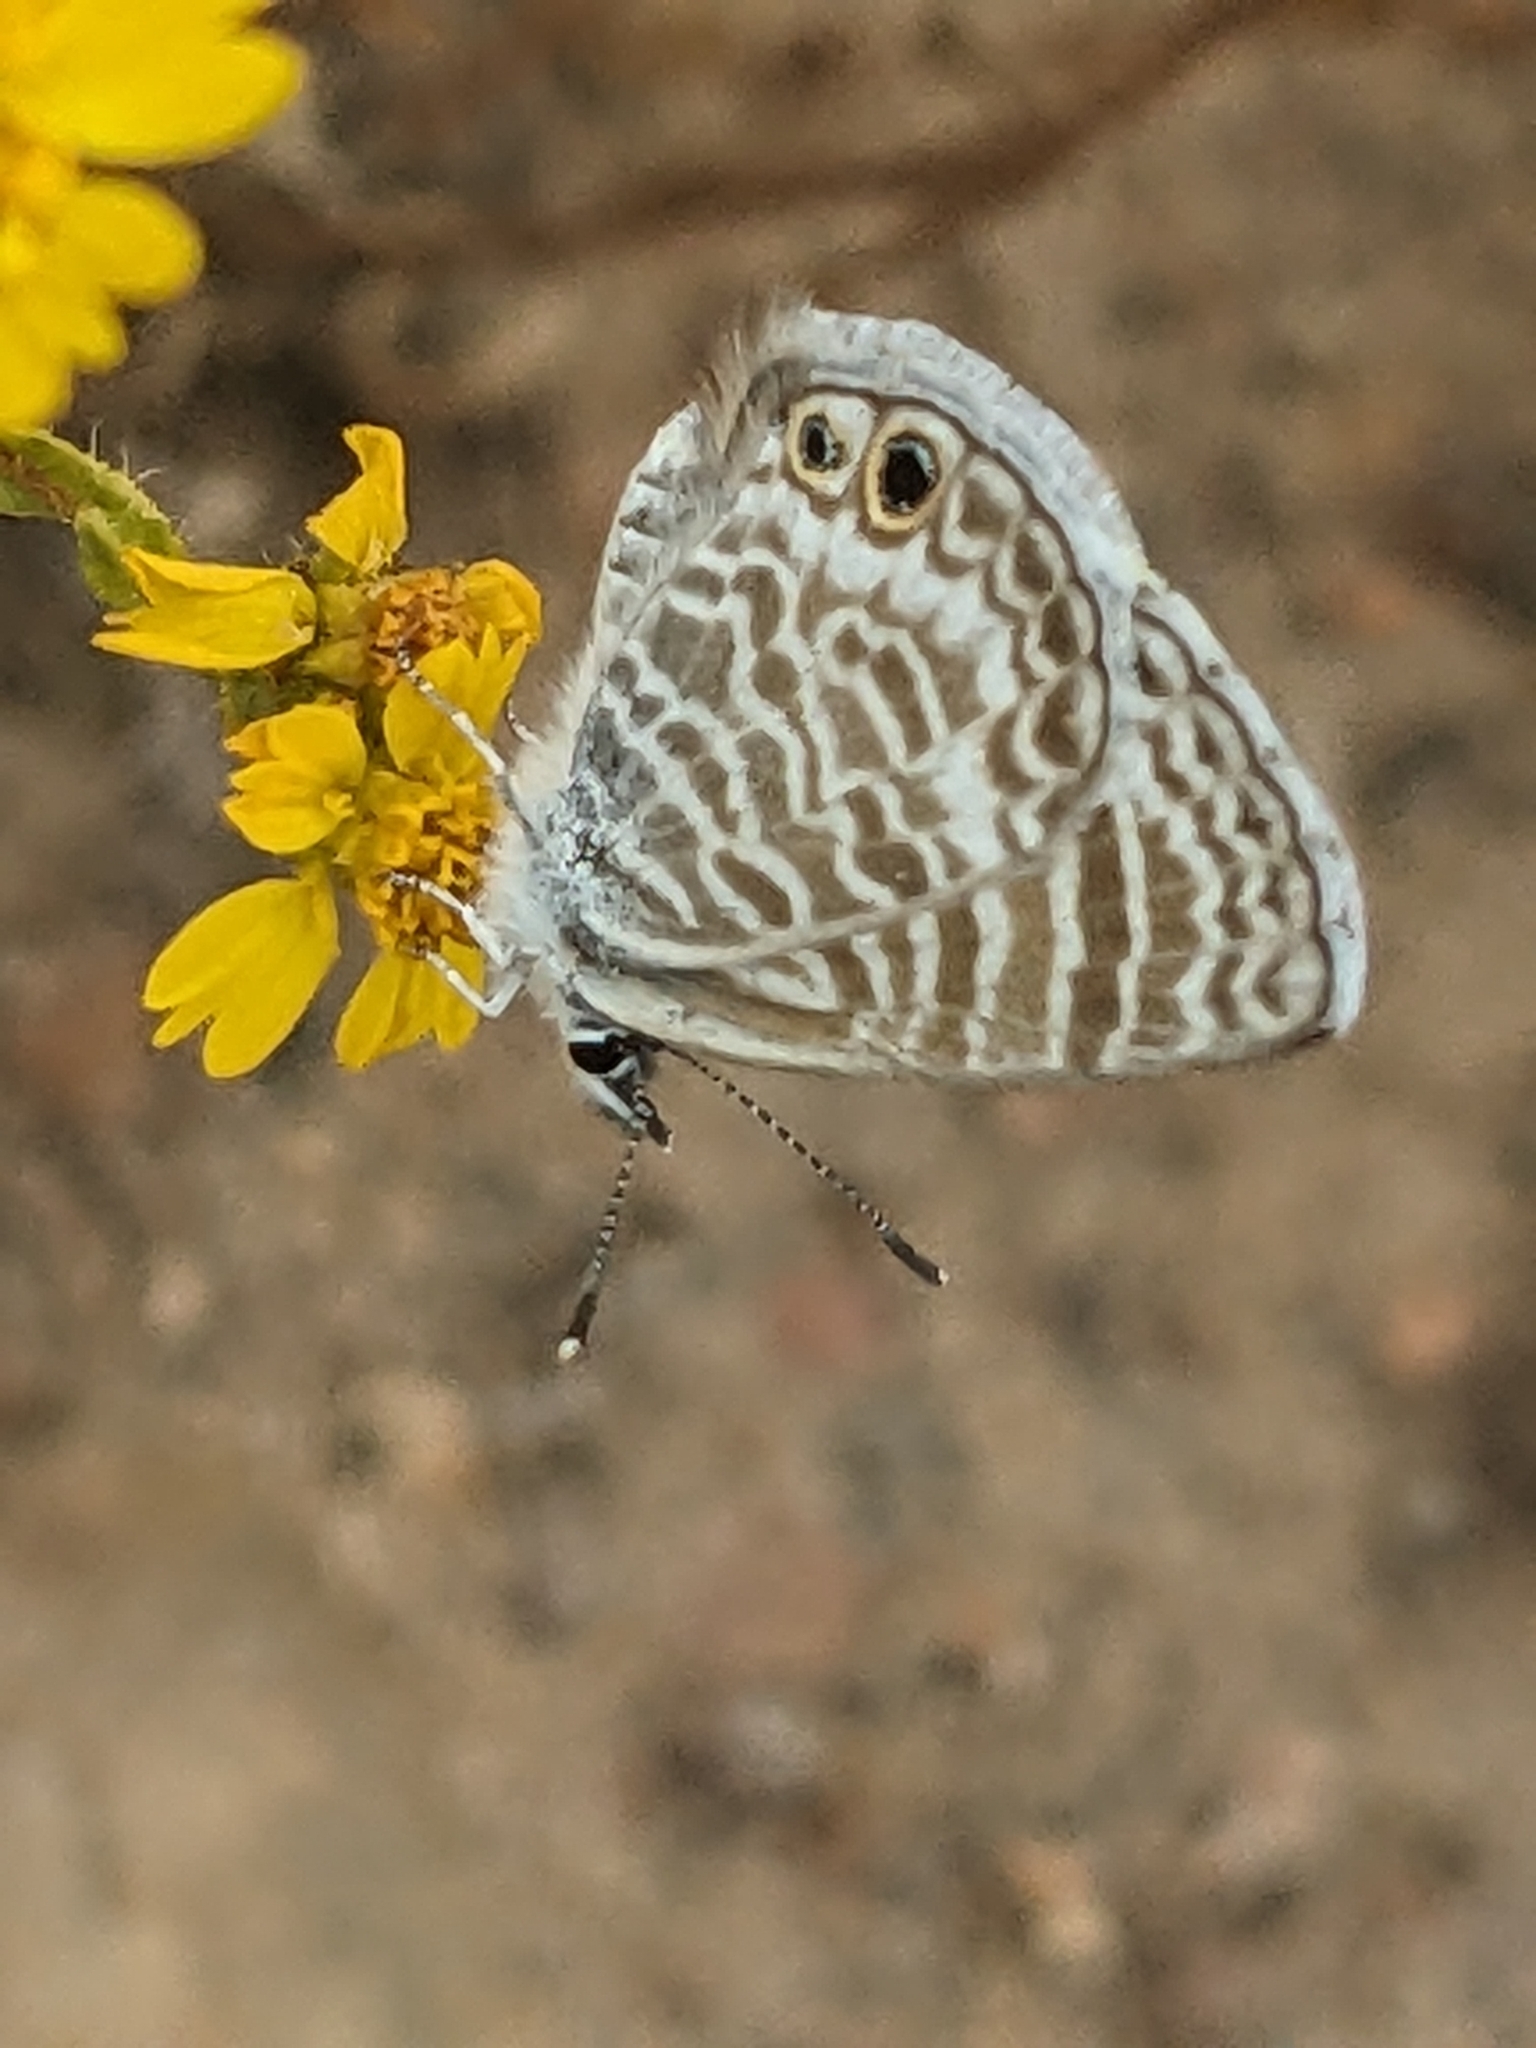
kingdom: Animalia
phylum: Arthropoda
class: Insecta
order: Lepidoptera
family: Lycaenidae
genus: Leptotes
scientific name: Leptotes marina
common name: Marine blue
